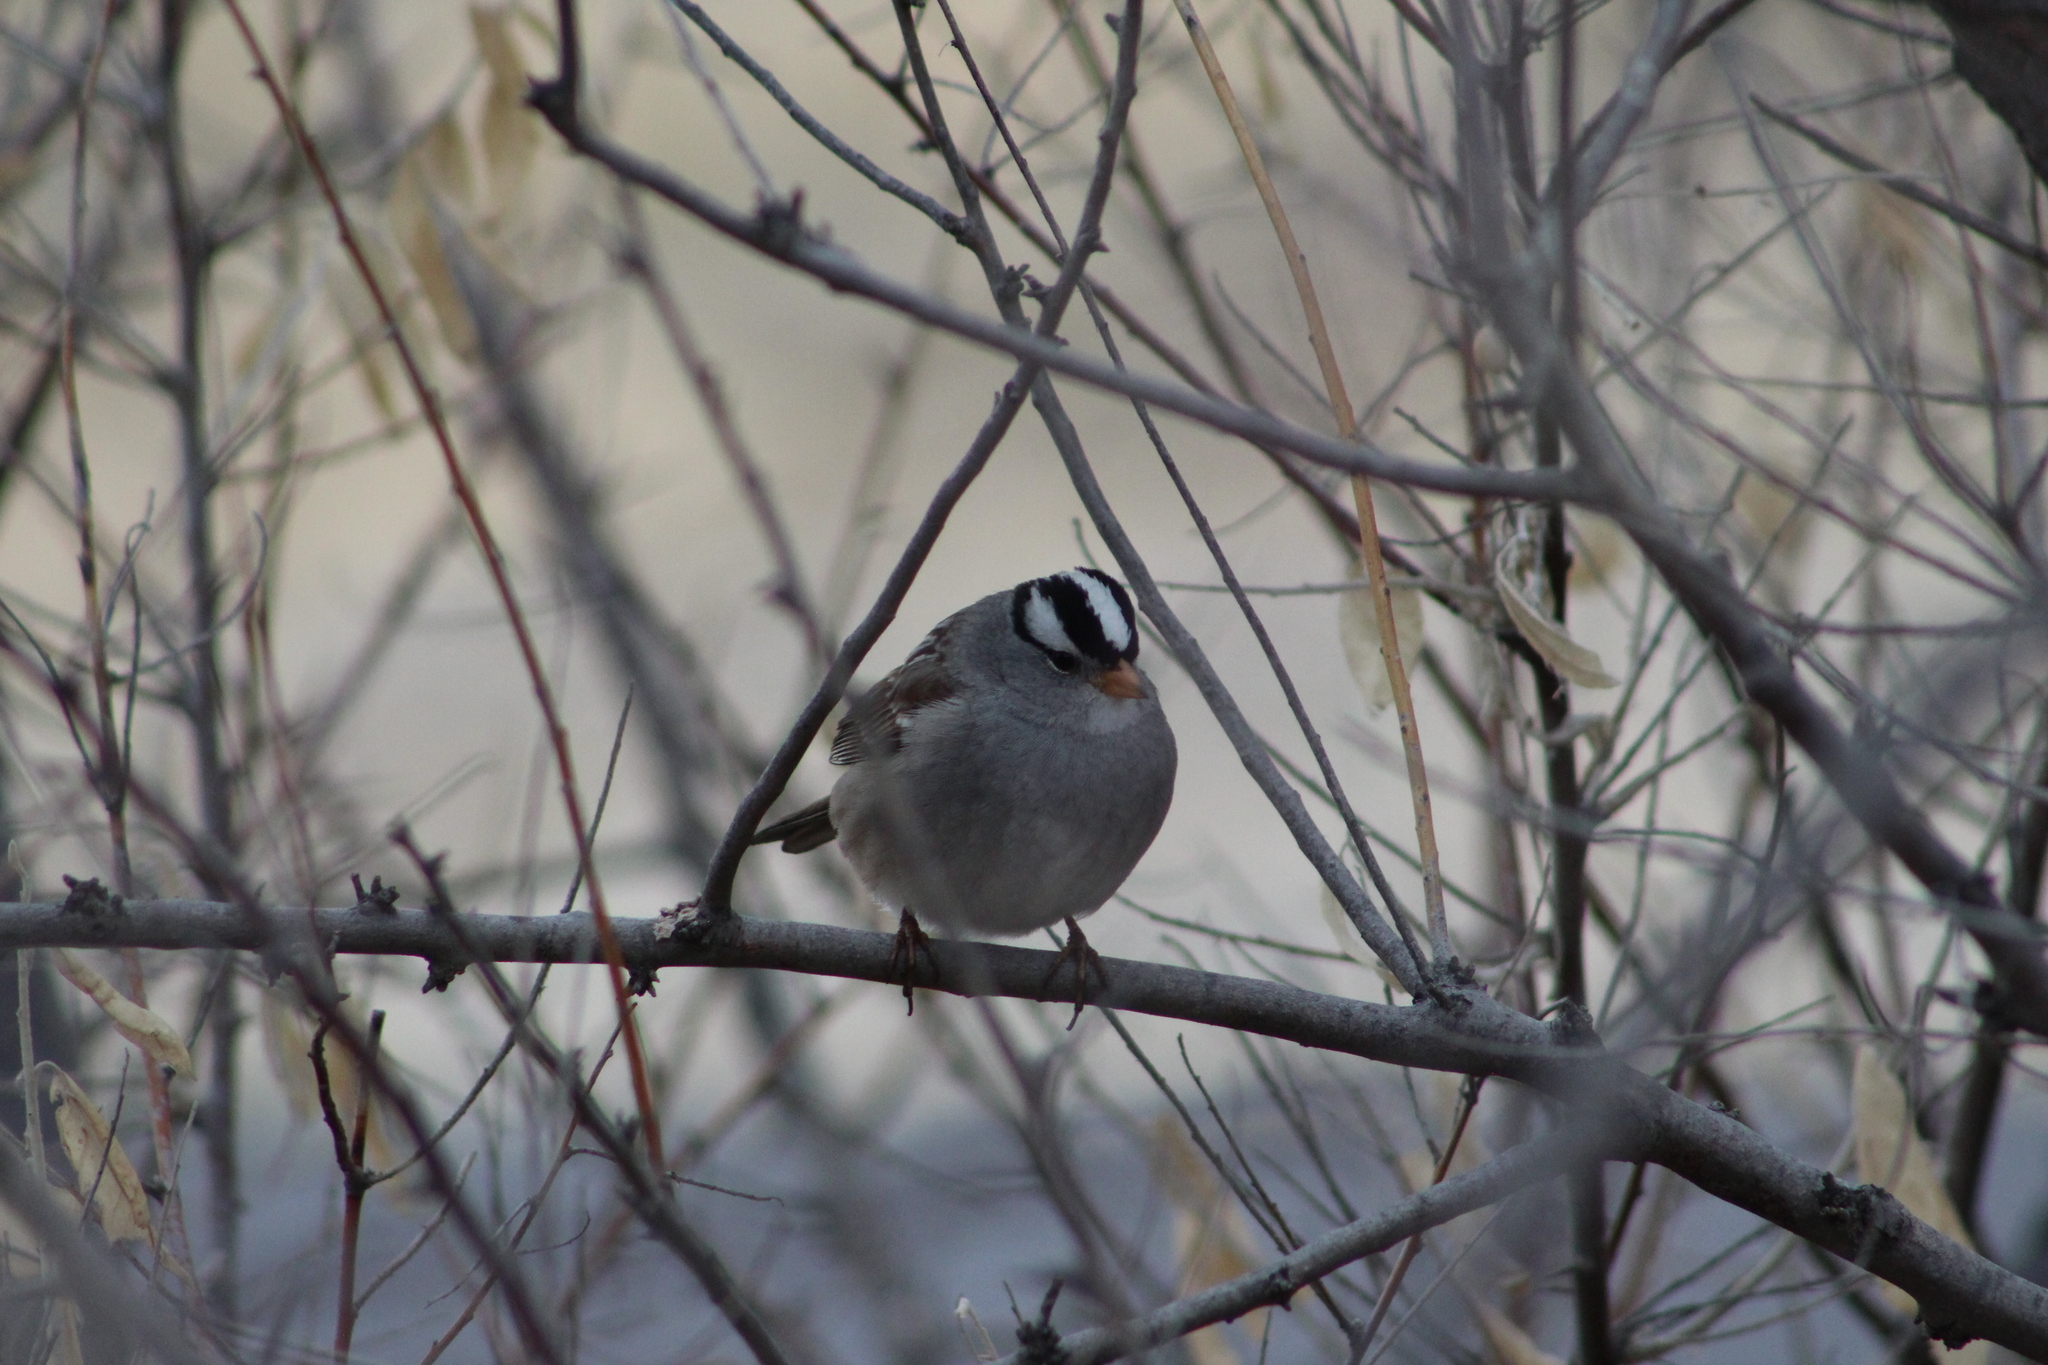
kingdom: Animalia
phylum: Chordata
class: Aves
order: Passeriformes
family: Passerellidae
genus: Zonotrichia
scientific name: Zonotrichia leucophrys
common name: White-crowned sparrow
